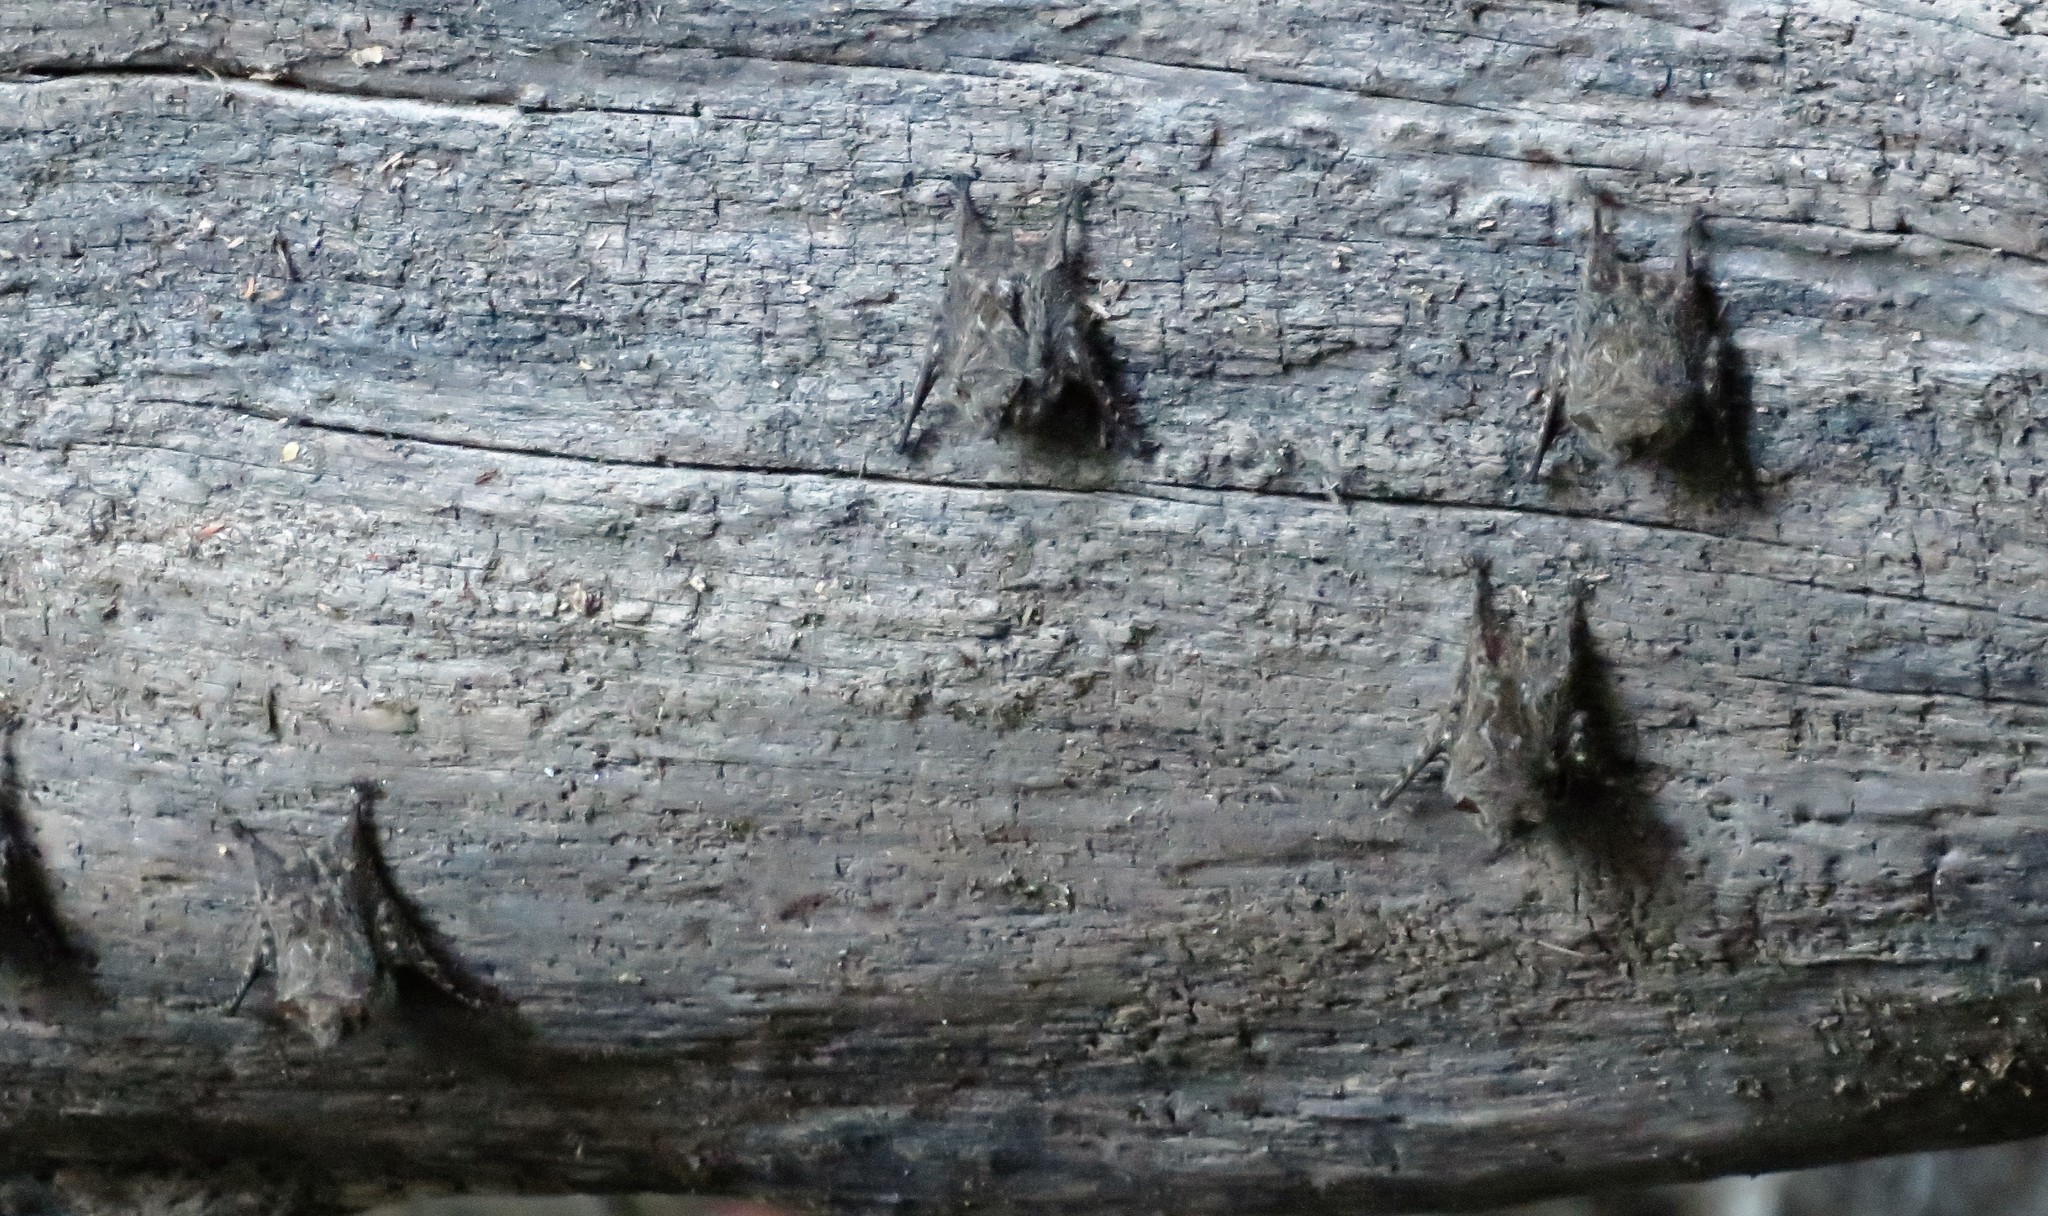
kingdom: Animalia
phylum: Chordata
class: Mammalia
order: Chiroptera
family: Emballonuridae
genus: Rhynchonycteris
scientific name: Rhynchonycteris naso
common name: Proboscis bat
